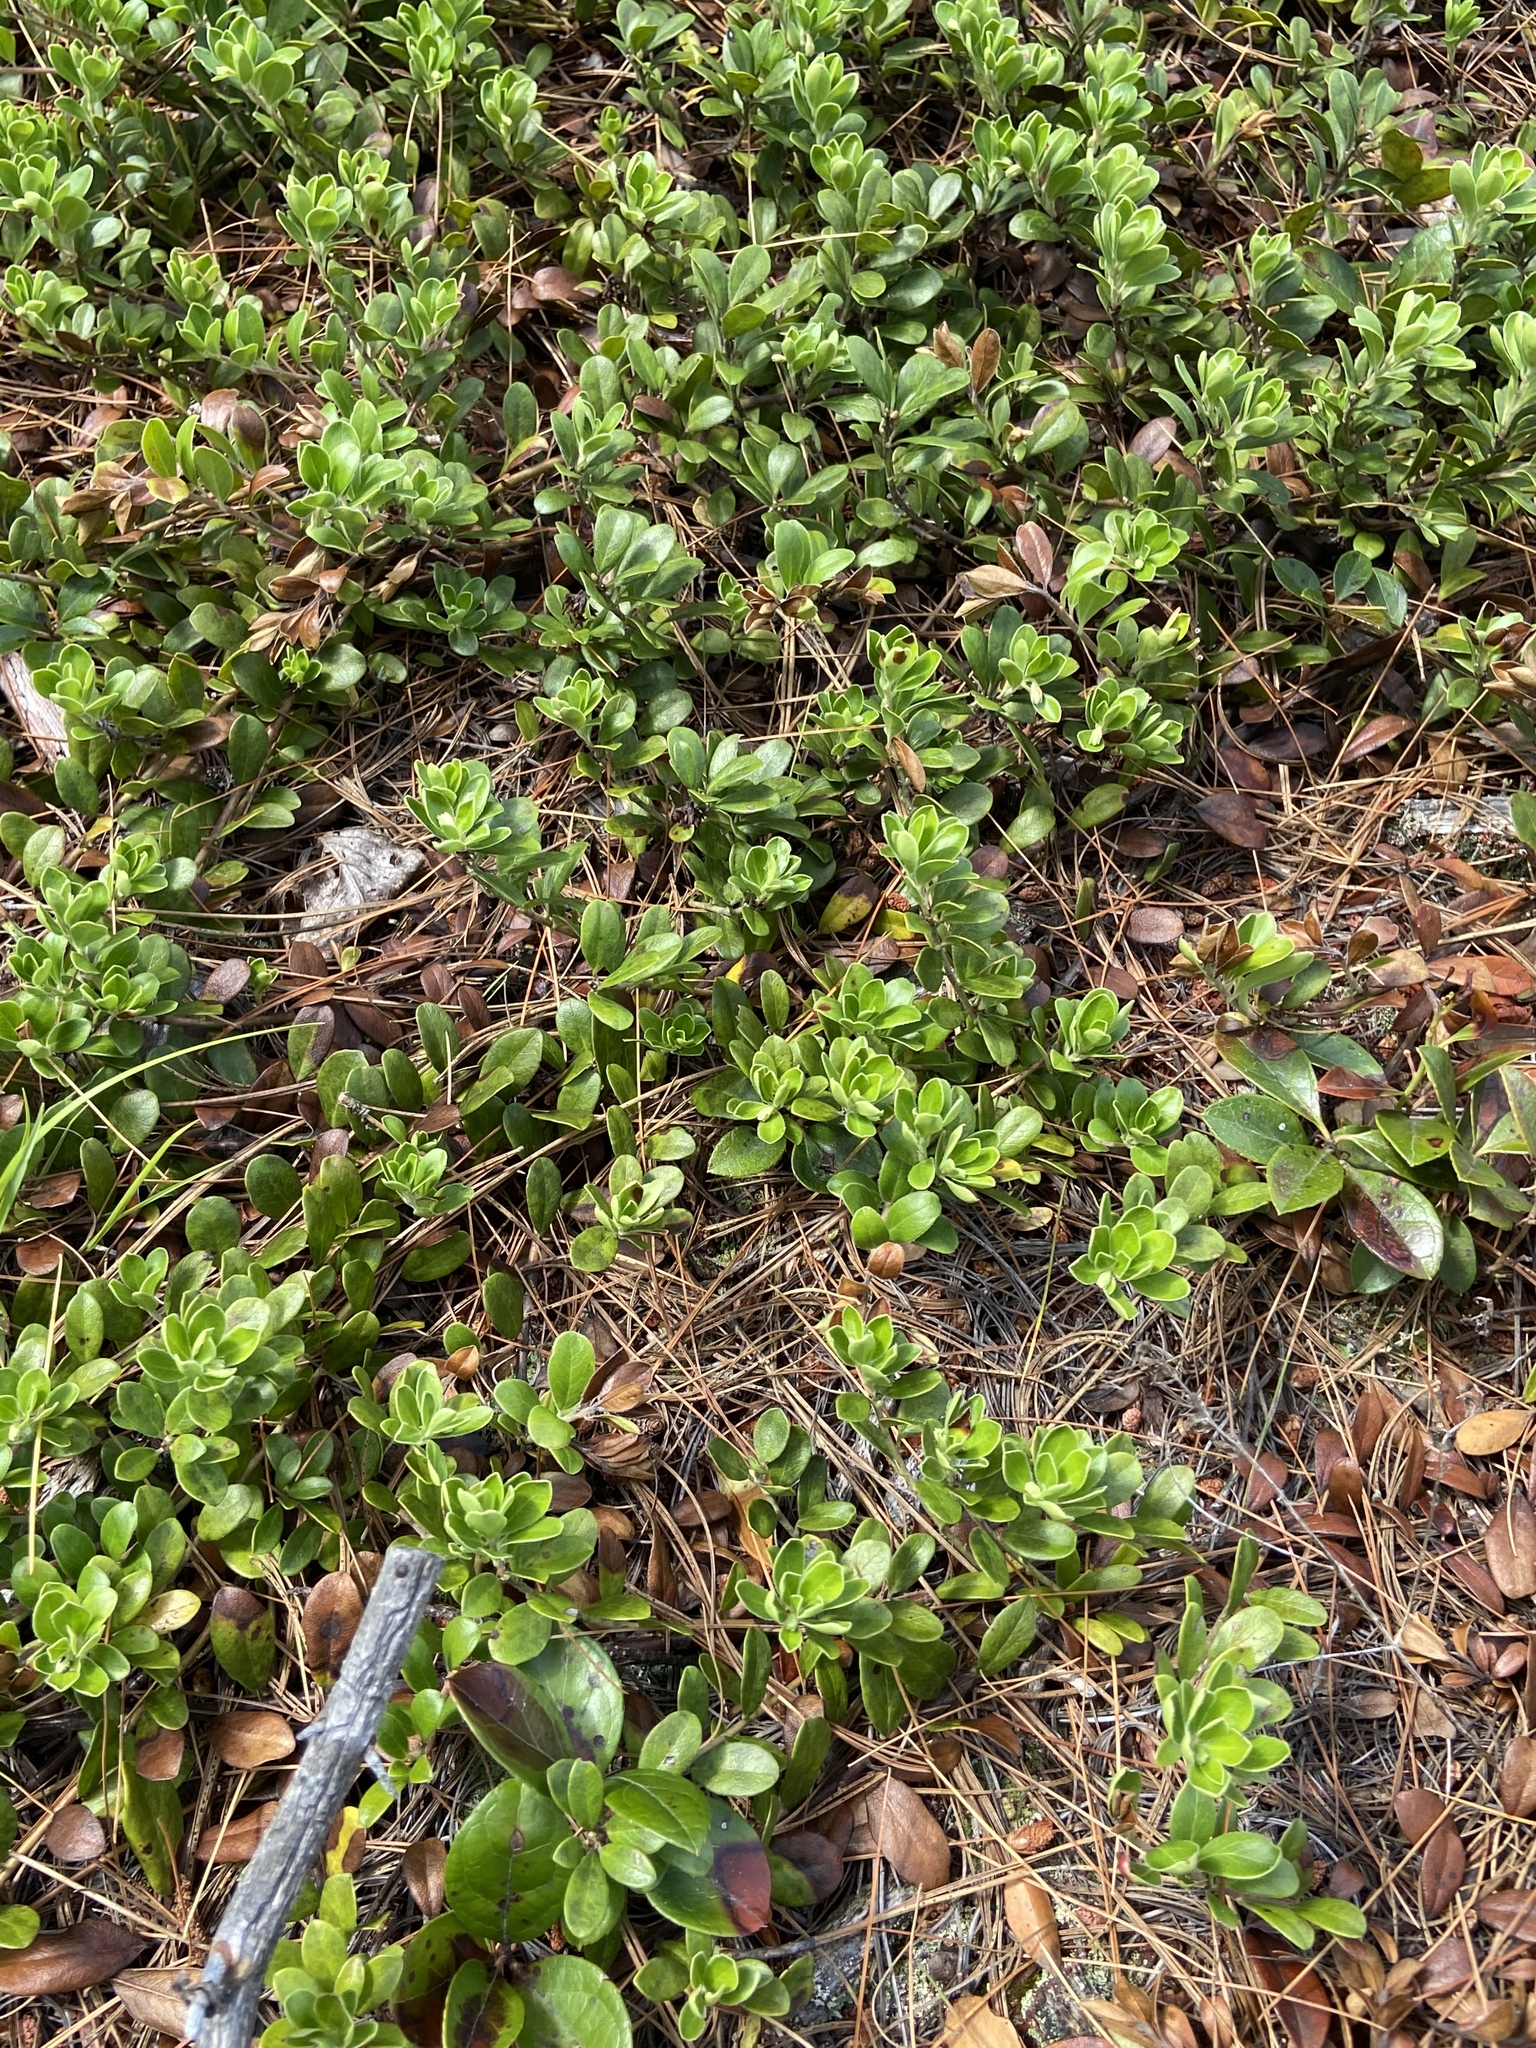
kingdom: Plantae
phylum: Tracheophyta
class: Magnoliopsida
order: Ericales
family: Ericaceae
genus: Arctostaphylos
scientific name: Arctostaphylos uva-ursi
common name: Bearberry
